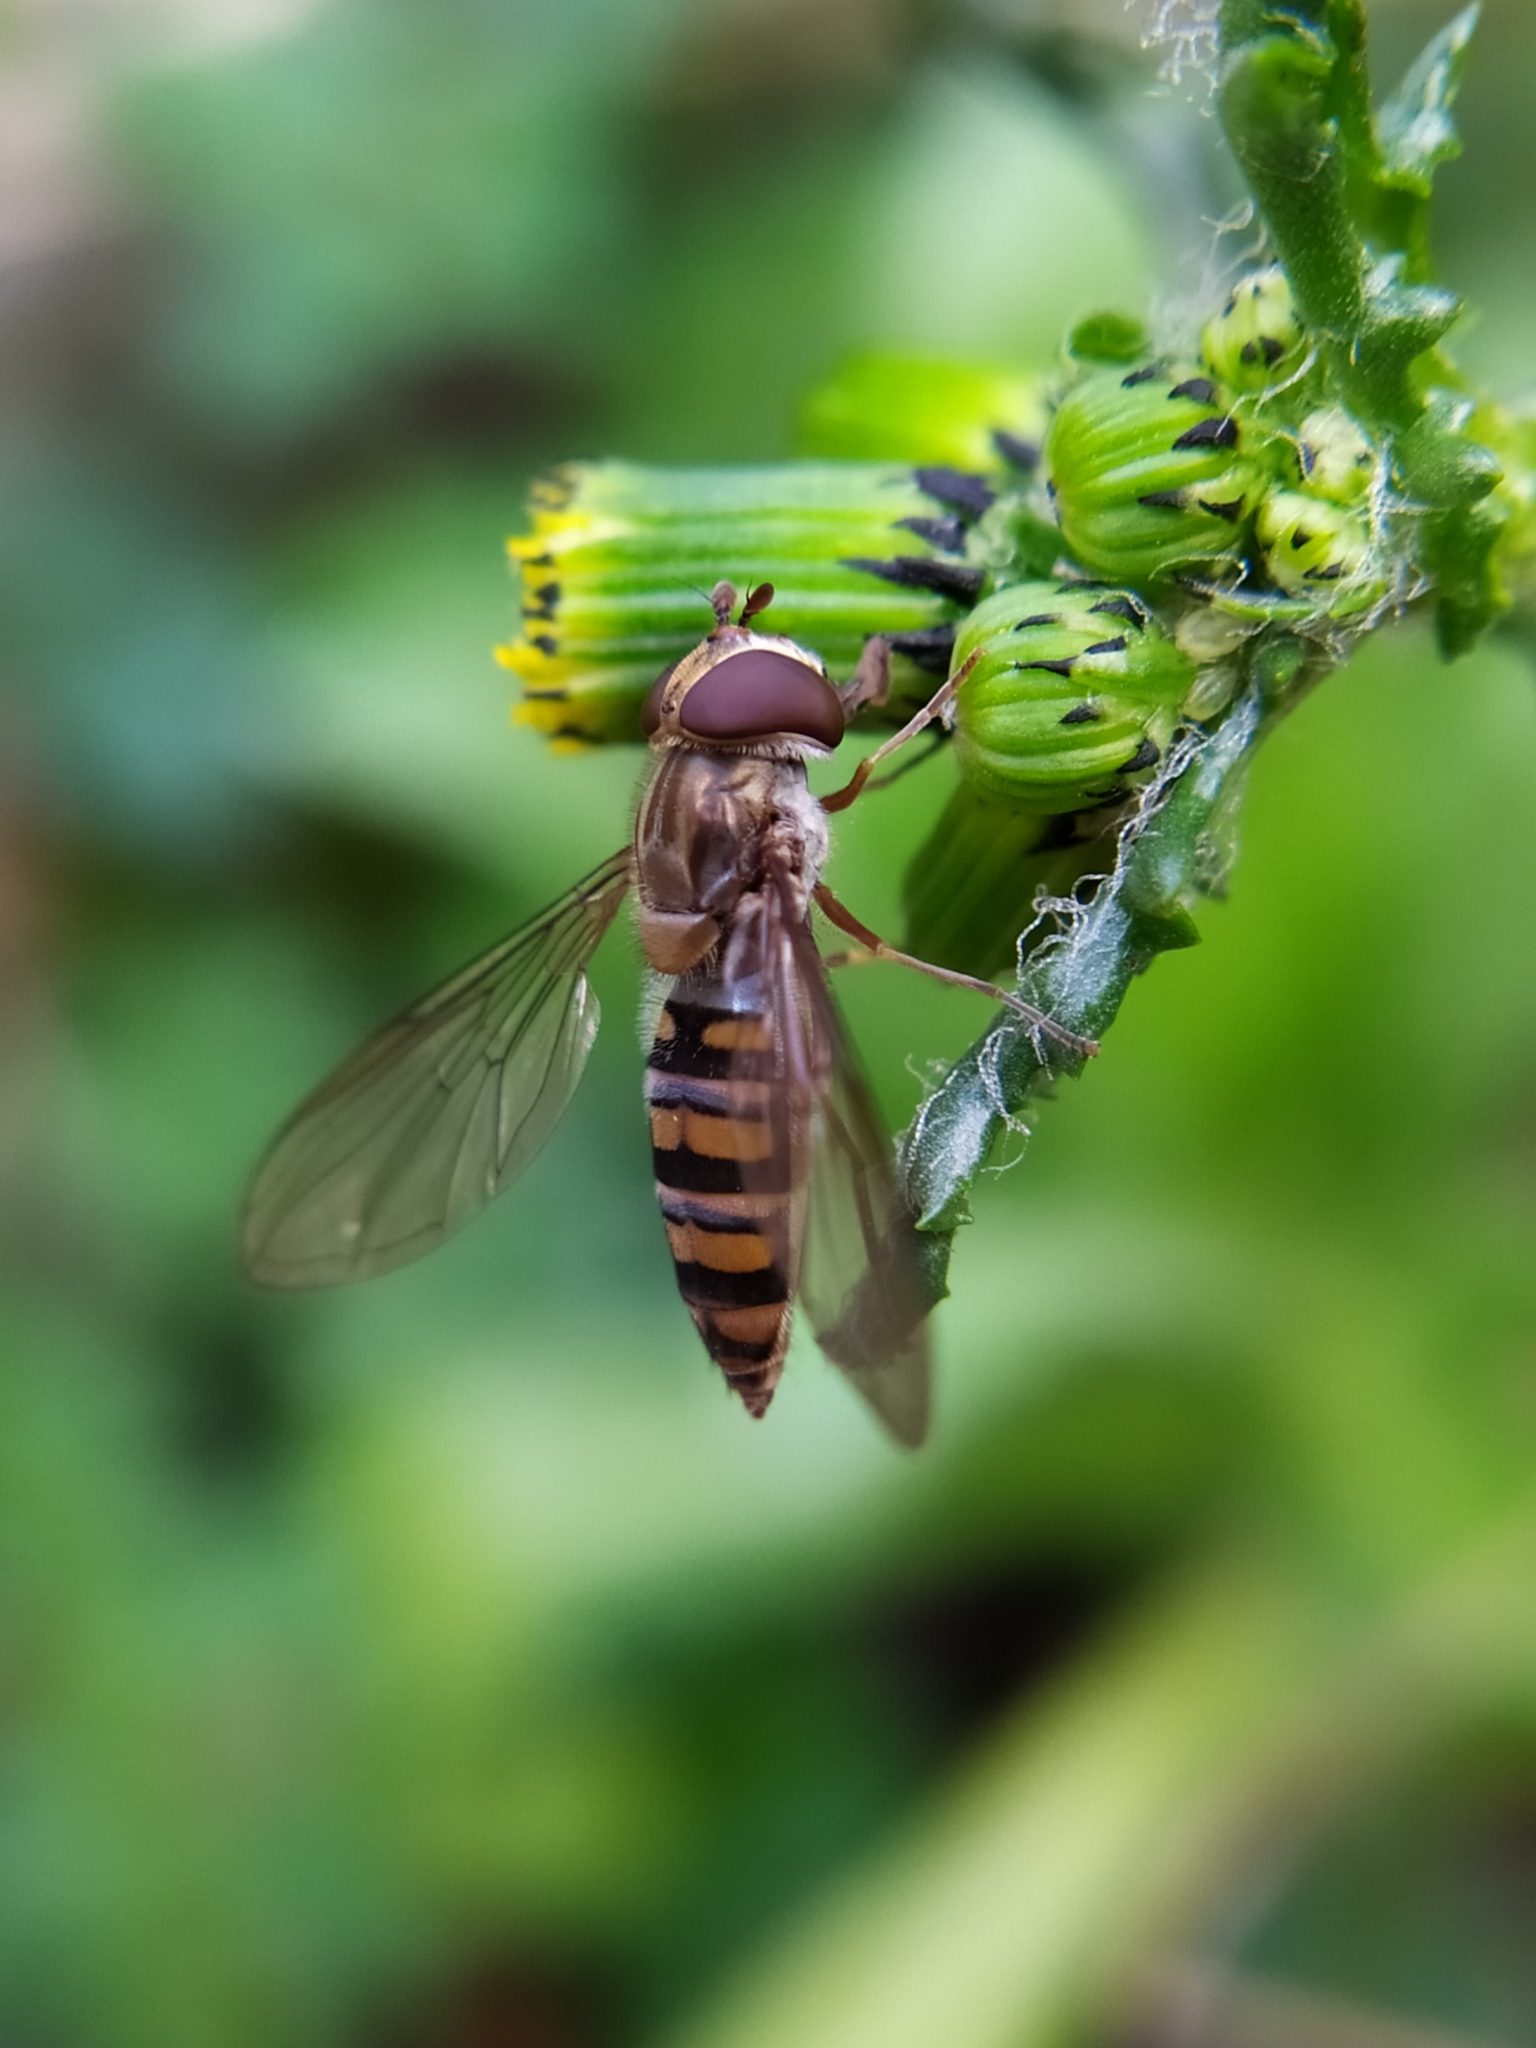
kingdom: Animalia
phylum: Arthropoda
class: Insecta
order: Diptera
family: Syrphidae
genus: Episyrphus
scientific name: Episyrphus balteatus
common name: Marmalade hoverfly
